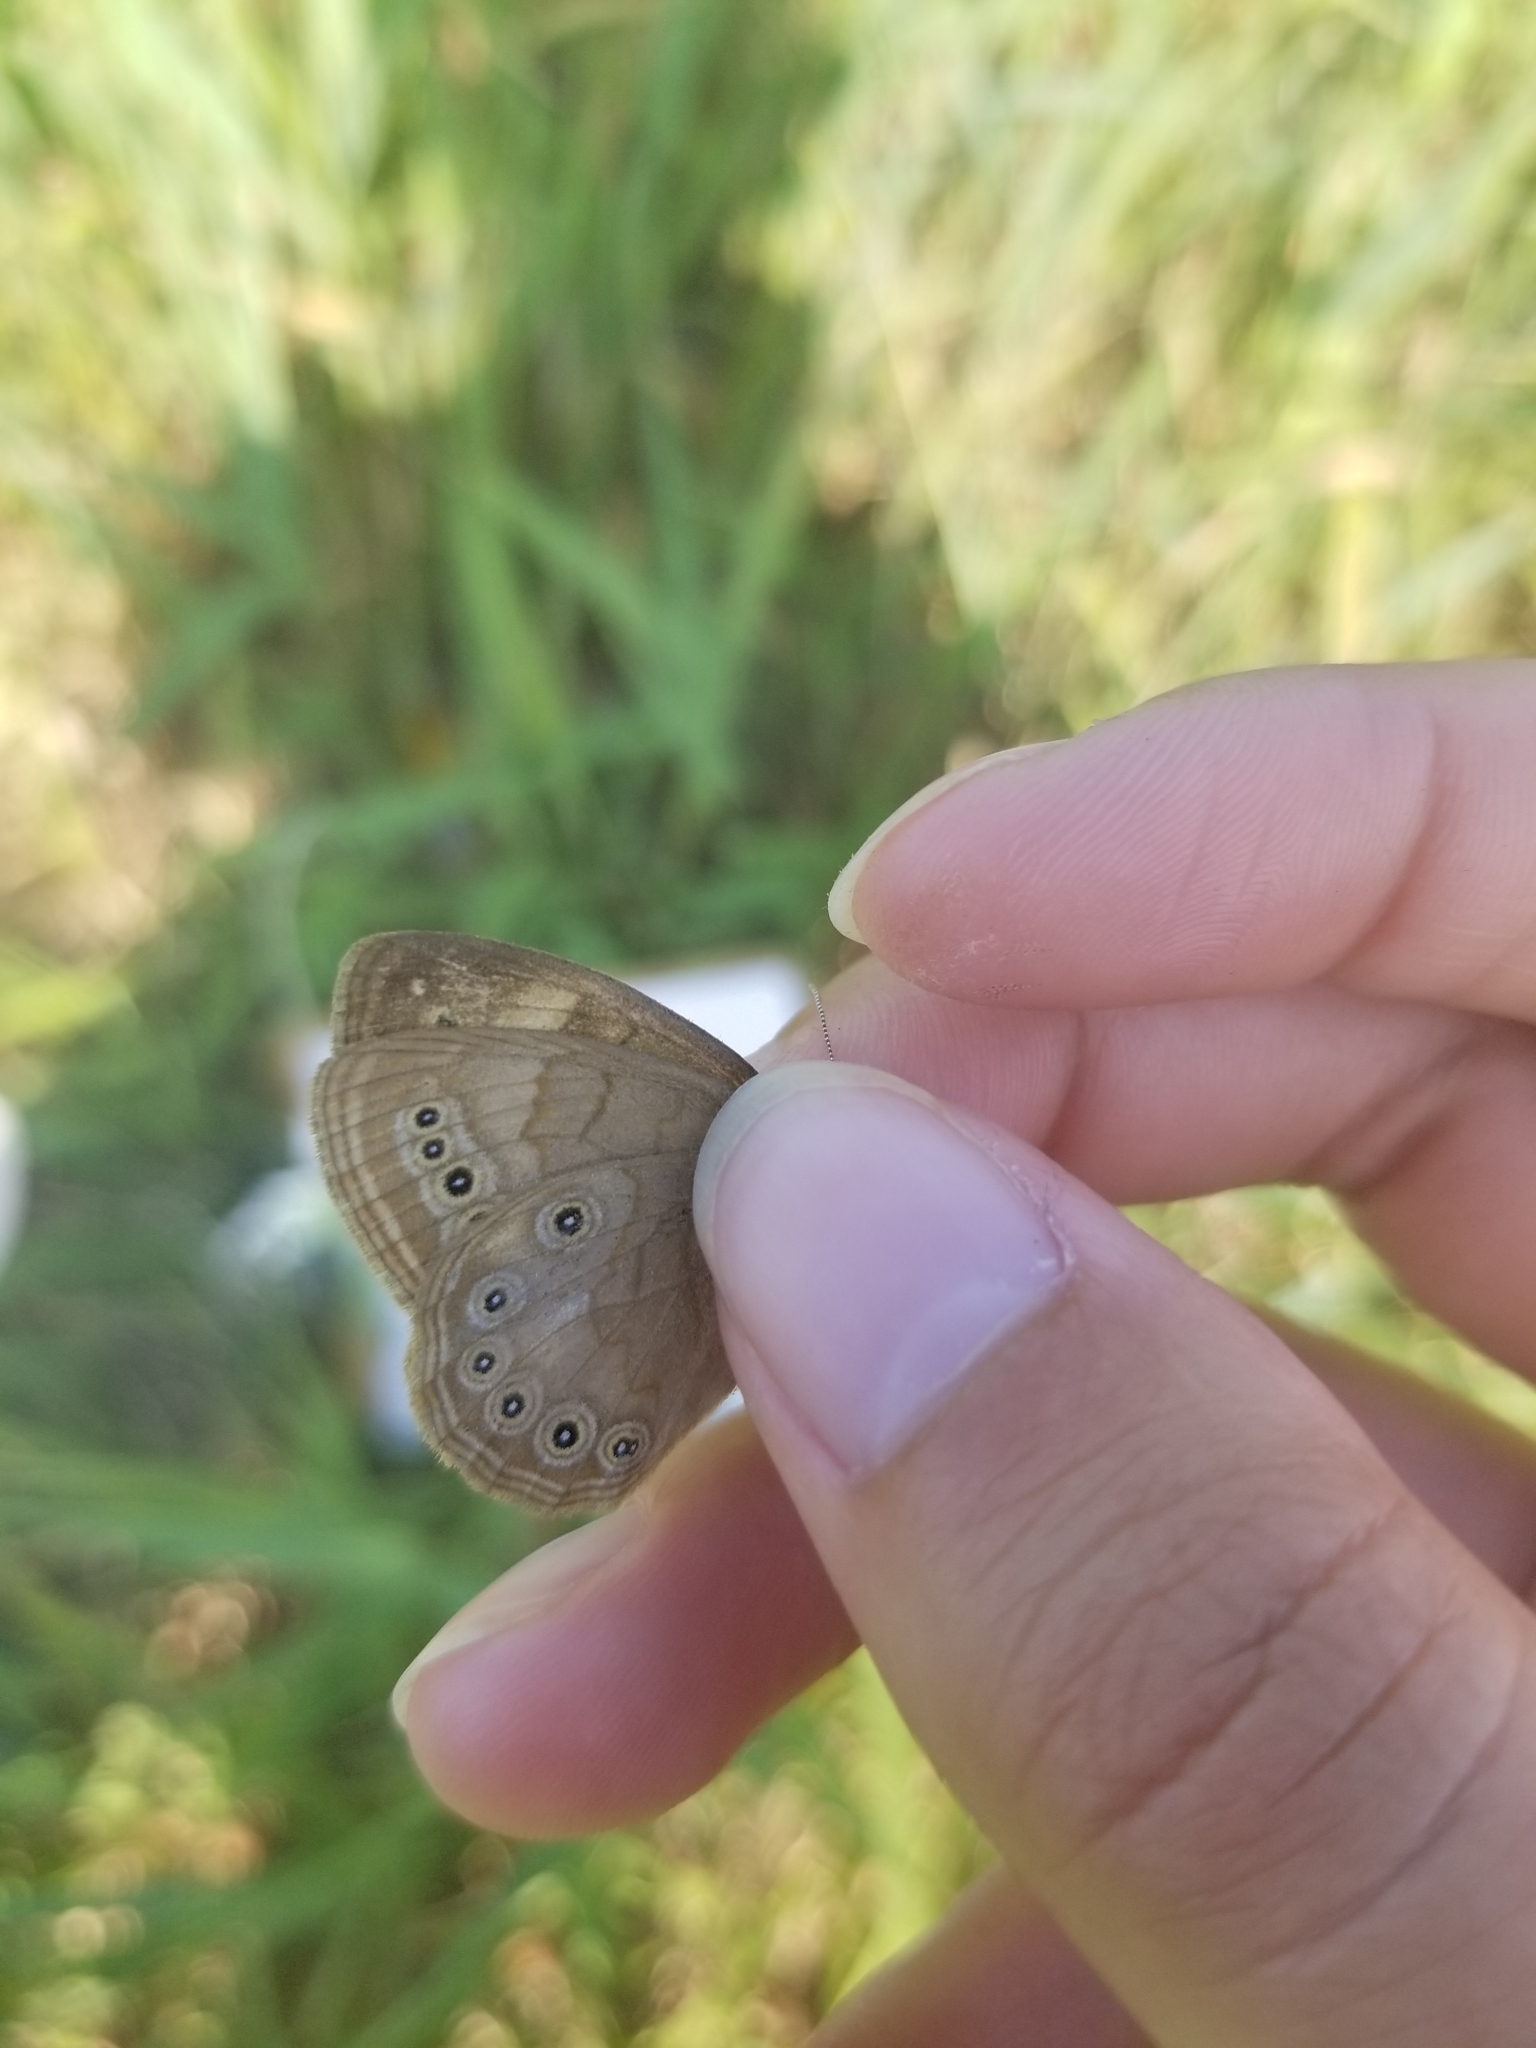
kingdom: Animalia
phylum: Arthropoda
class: Insecta
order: Lepidoptera
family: Nymphalidae
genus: Lethe
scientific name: Lethe eurydice
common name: Eyed brown
